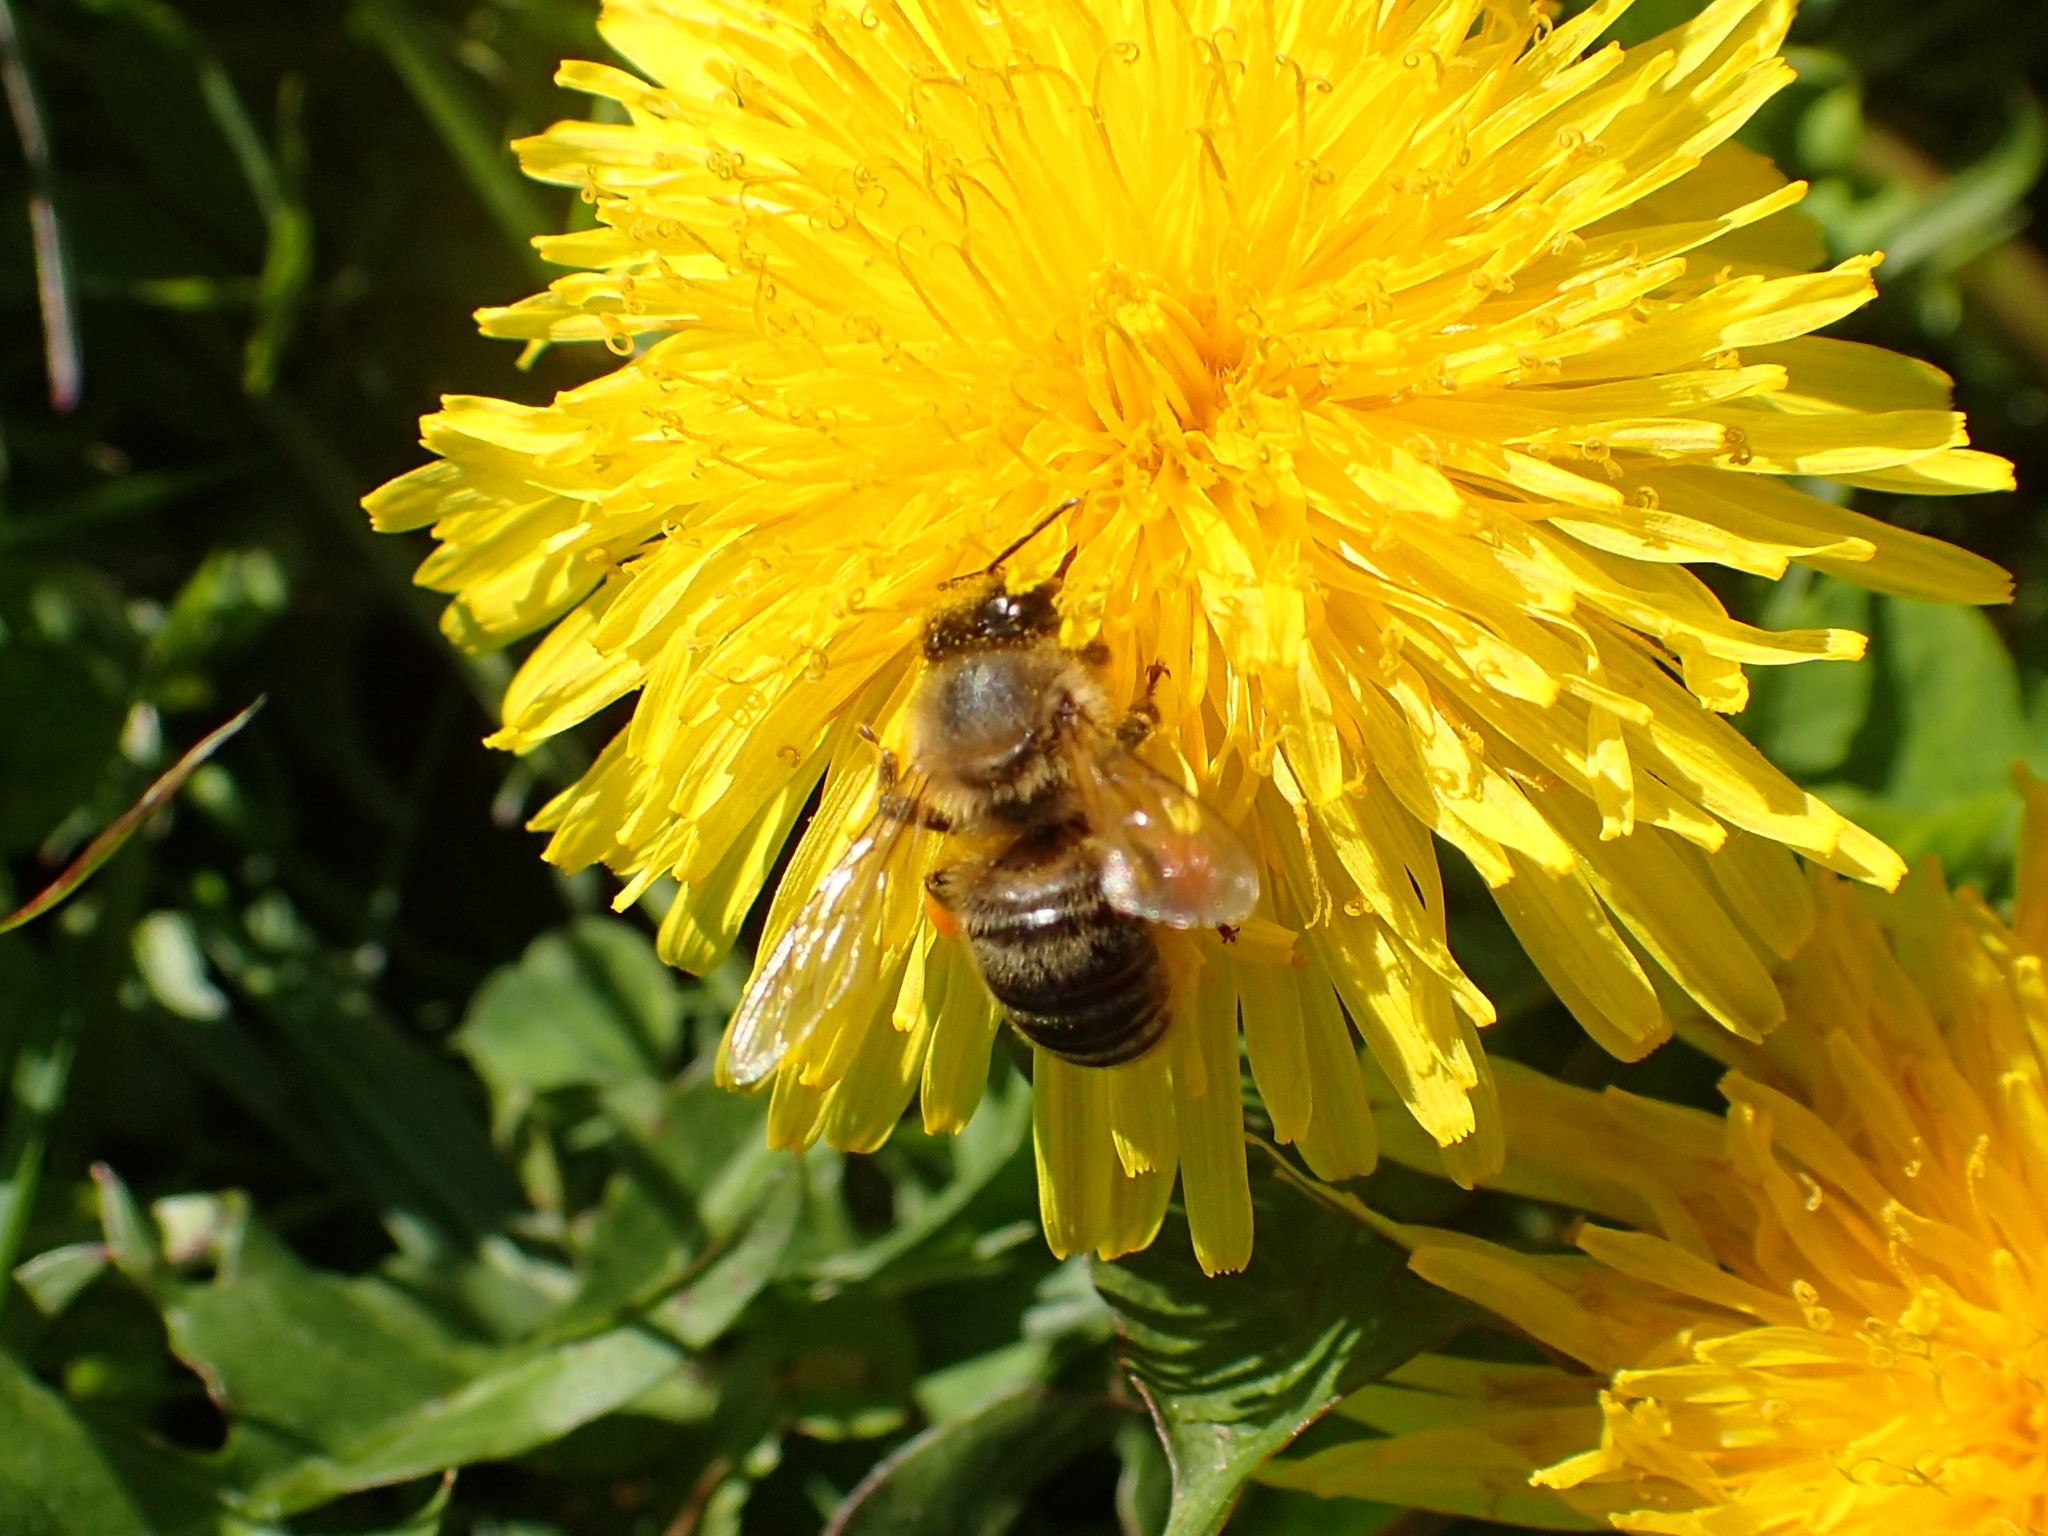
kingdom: Animalia
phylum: Arthropoda
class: Insecta
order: Hymenoptera
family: Apidae
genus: Apis
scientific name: Apis mellifera
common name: Honey bee
